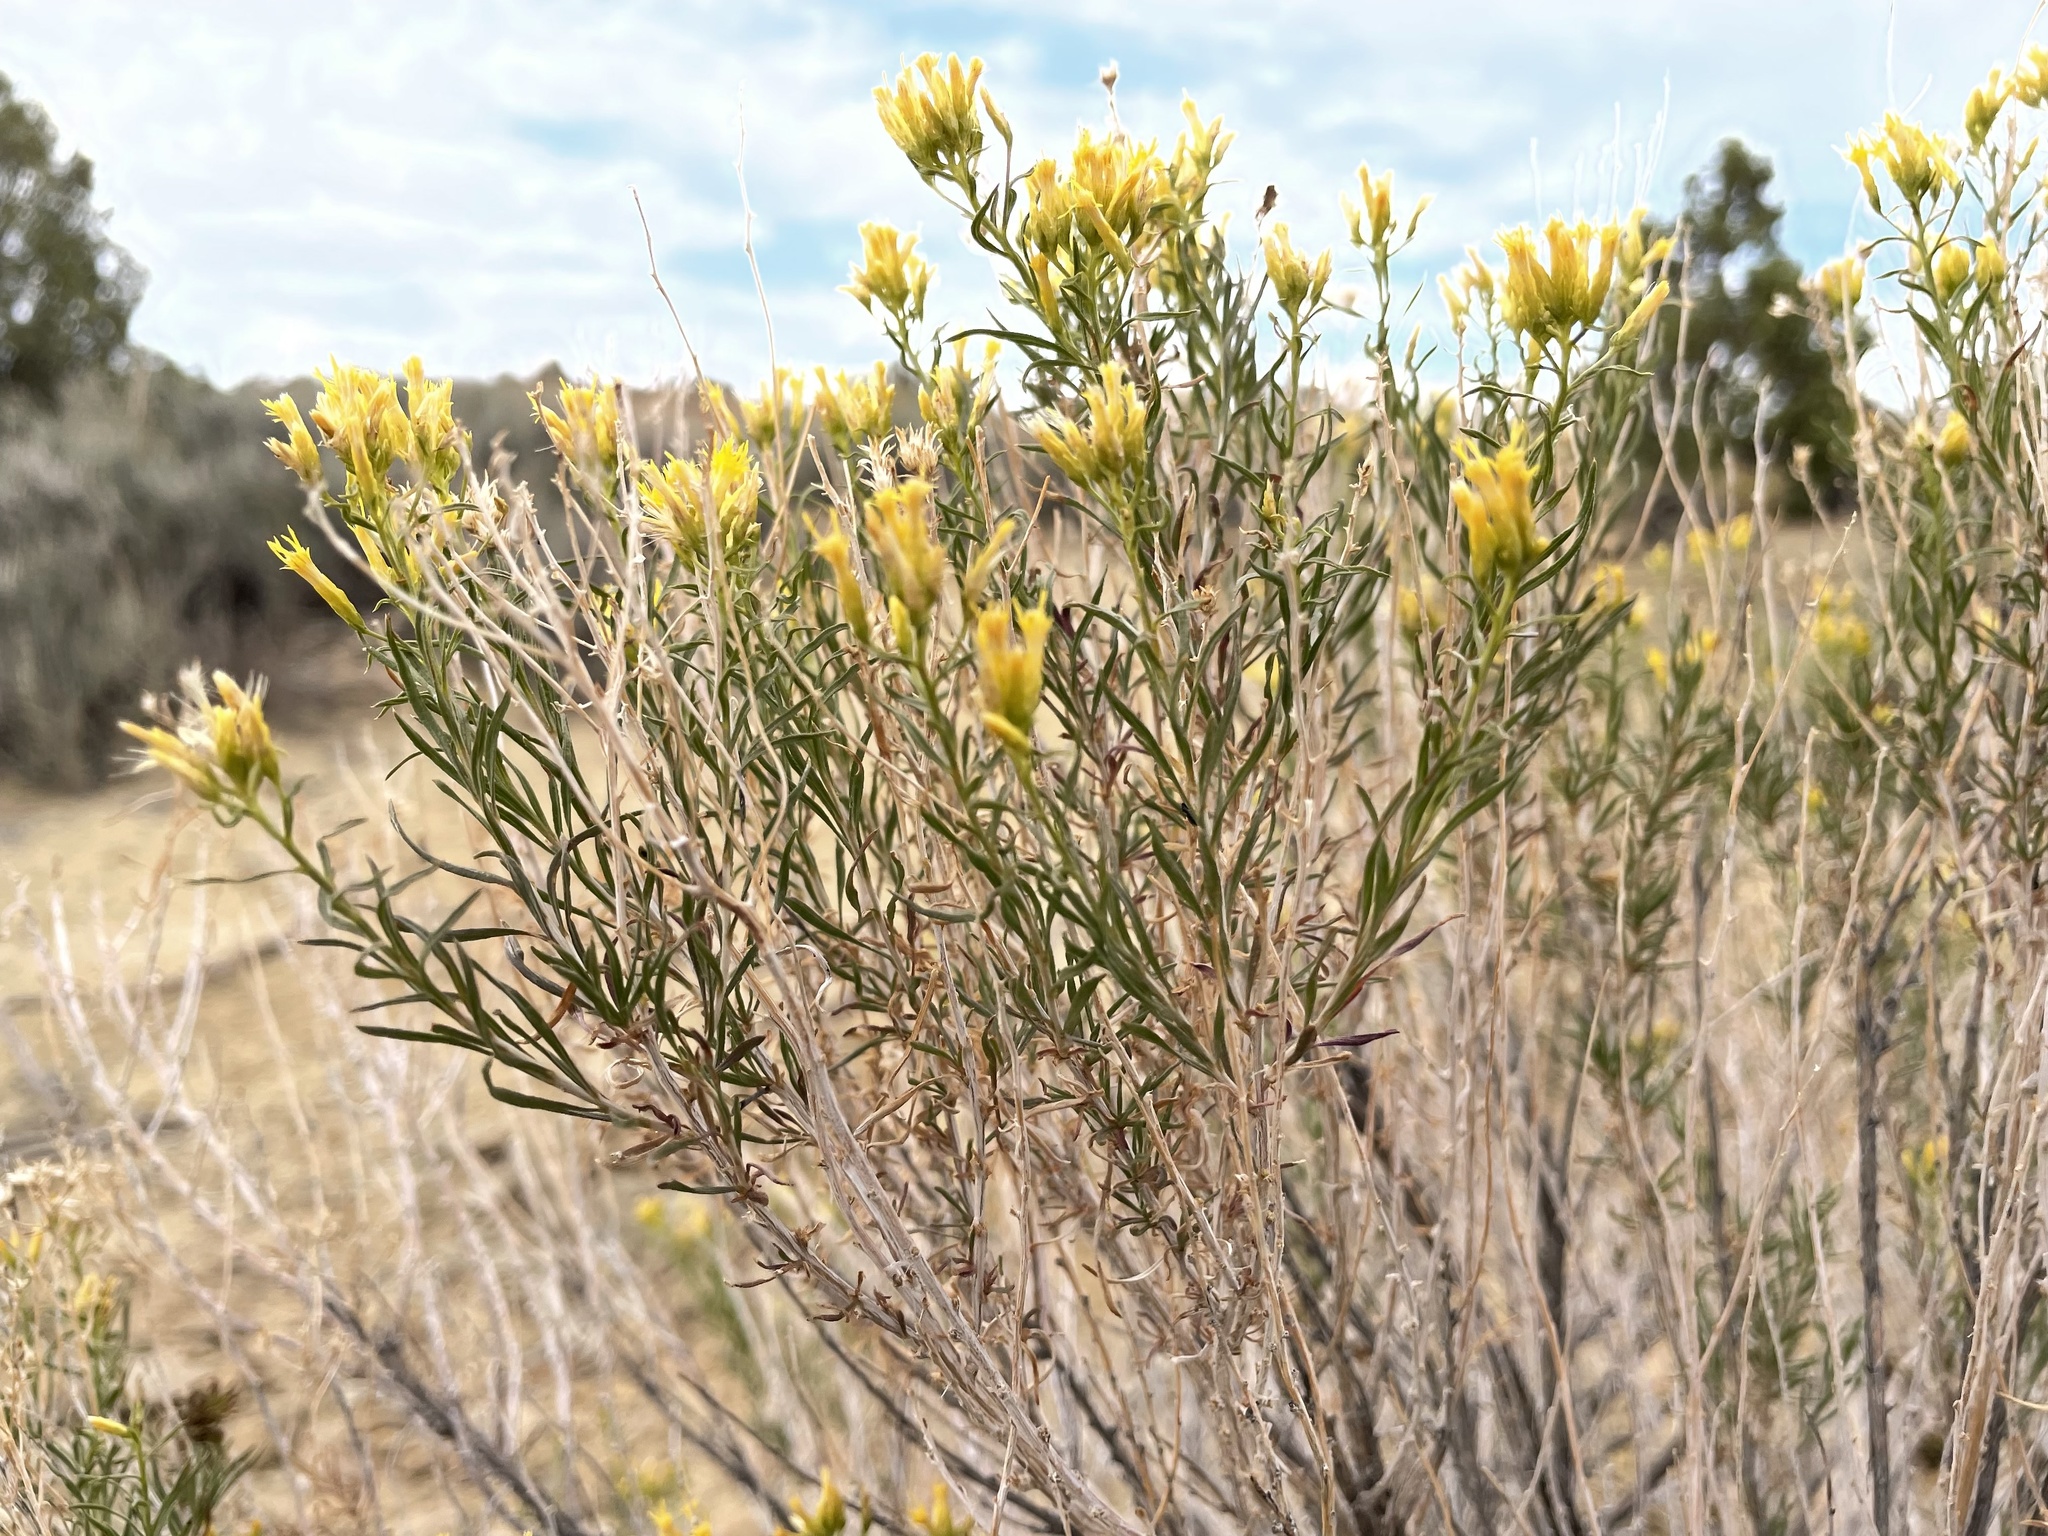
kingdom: Plantae
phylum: Tracheophyta
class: Magnoliopsida
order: Asterales
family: Asteraceae
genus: Chrysothamnus
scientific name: Chrysothamnus greenei
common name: Greene's rabbitbrush
